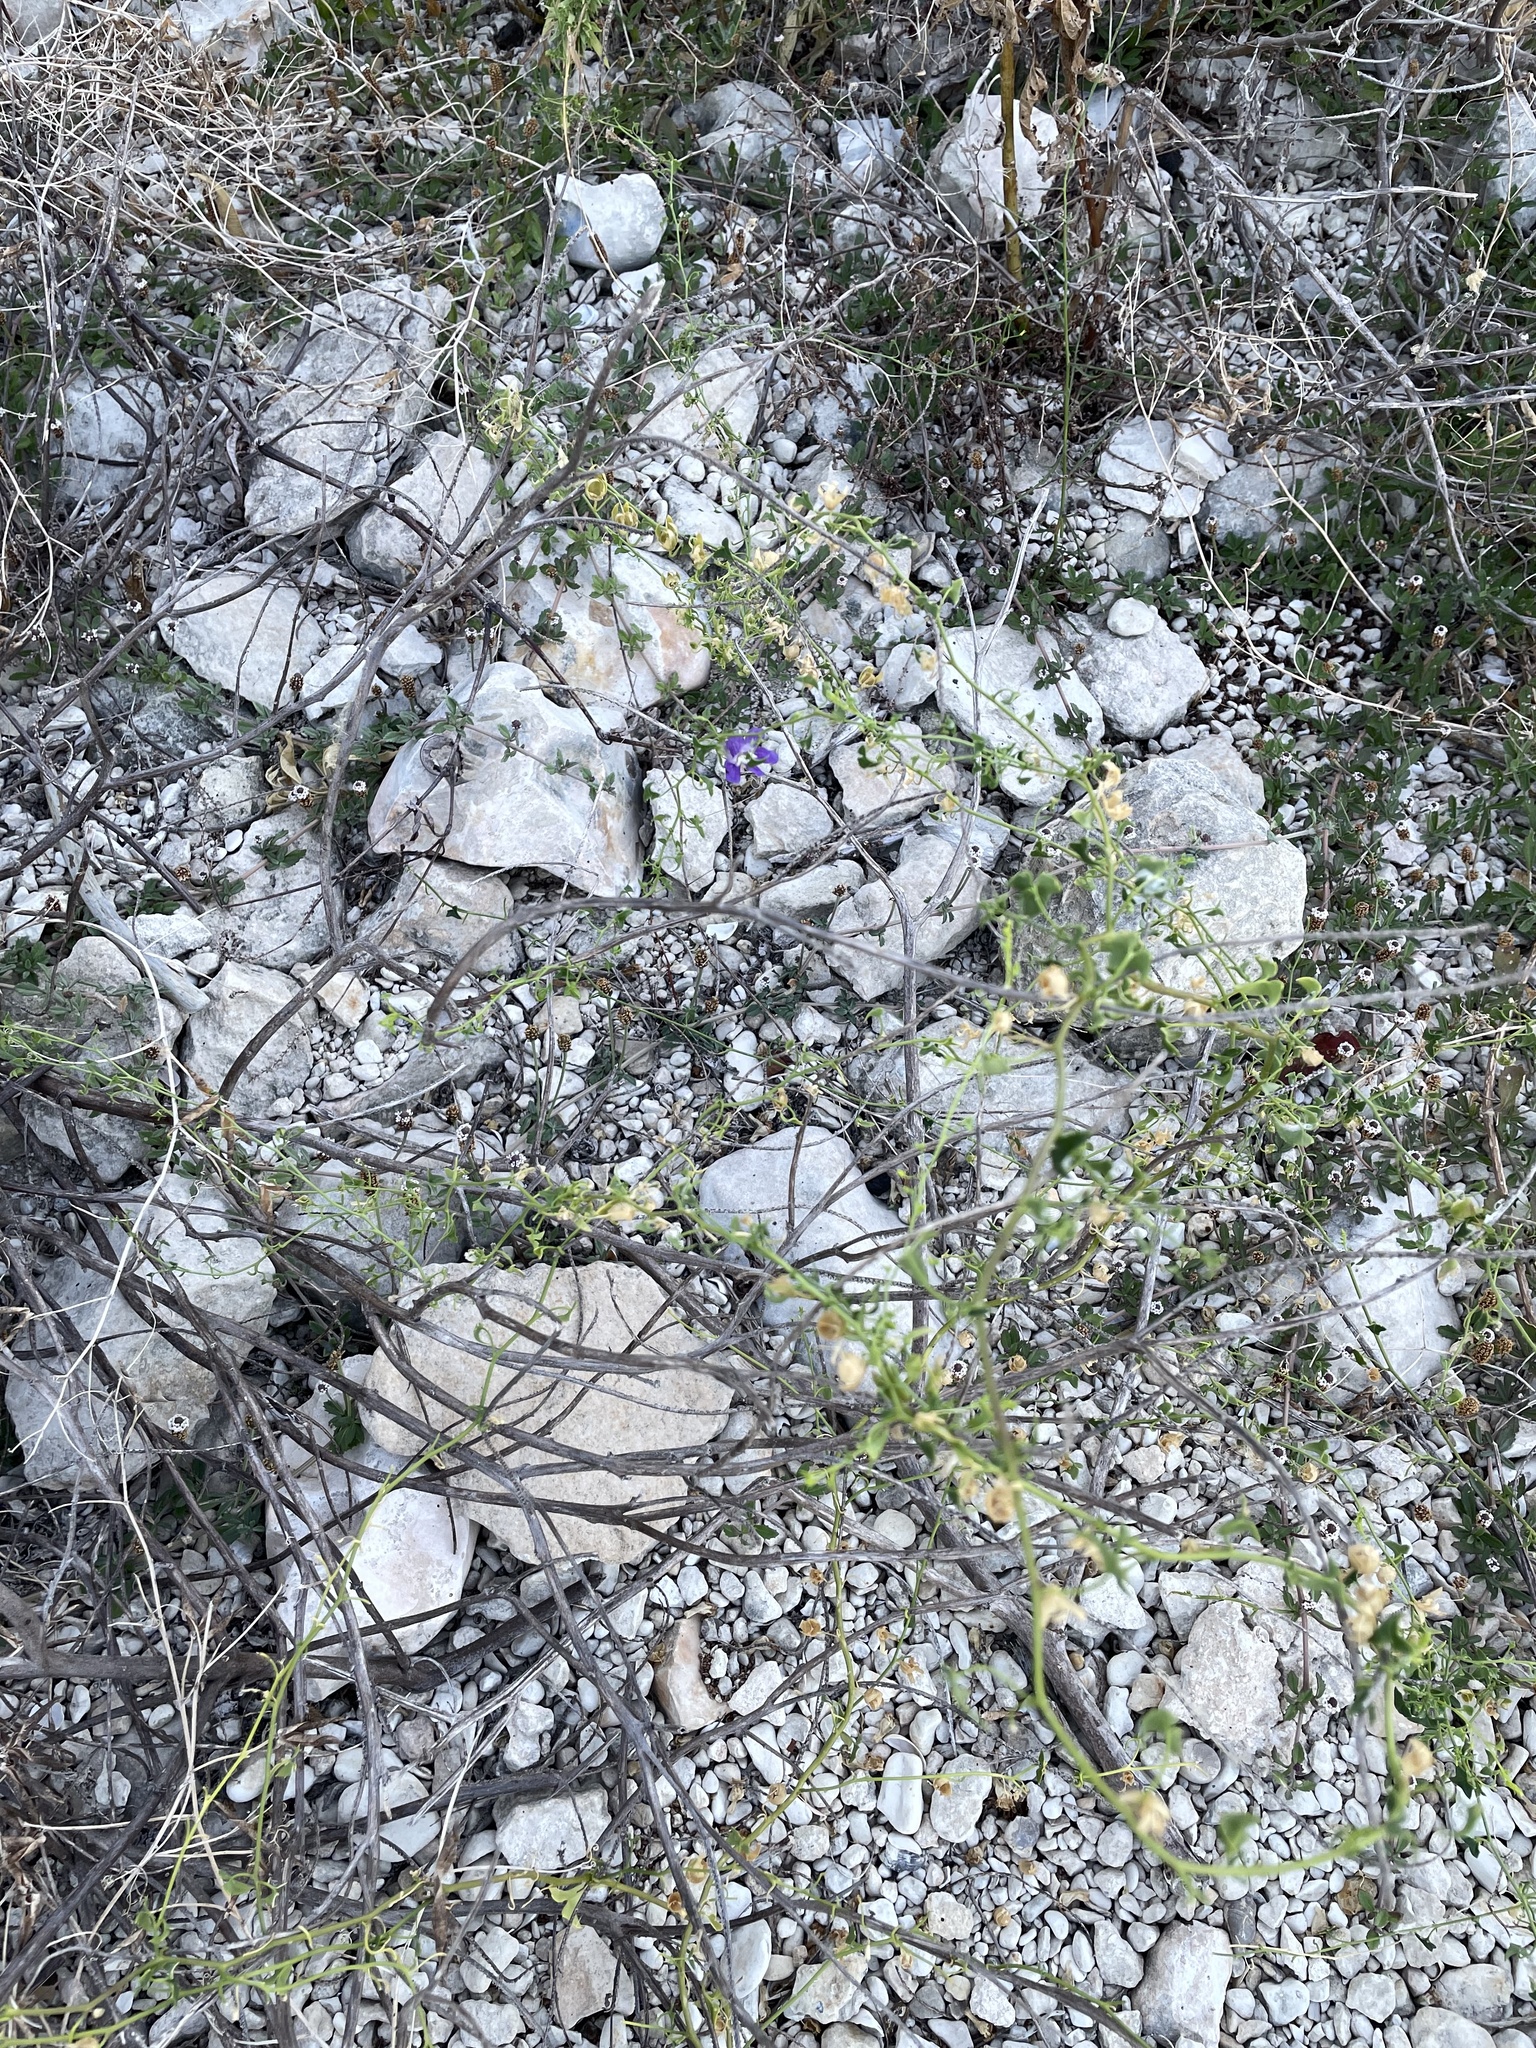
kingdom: Plantae
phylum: Tracheophyta
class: Magnoliopsida
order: Lamiales
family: Plantaginaceae
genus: Maurandella
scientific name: Maurandella antirrhiniflora
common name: Violet twining-snapdragon
